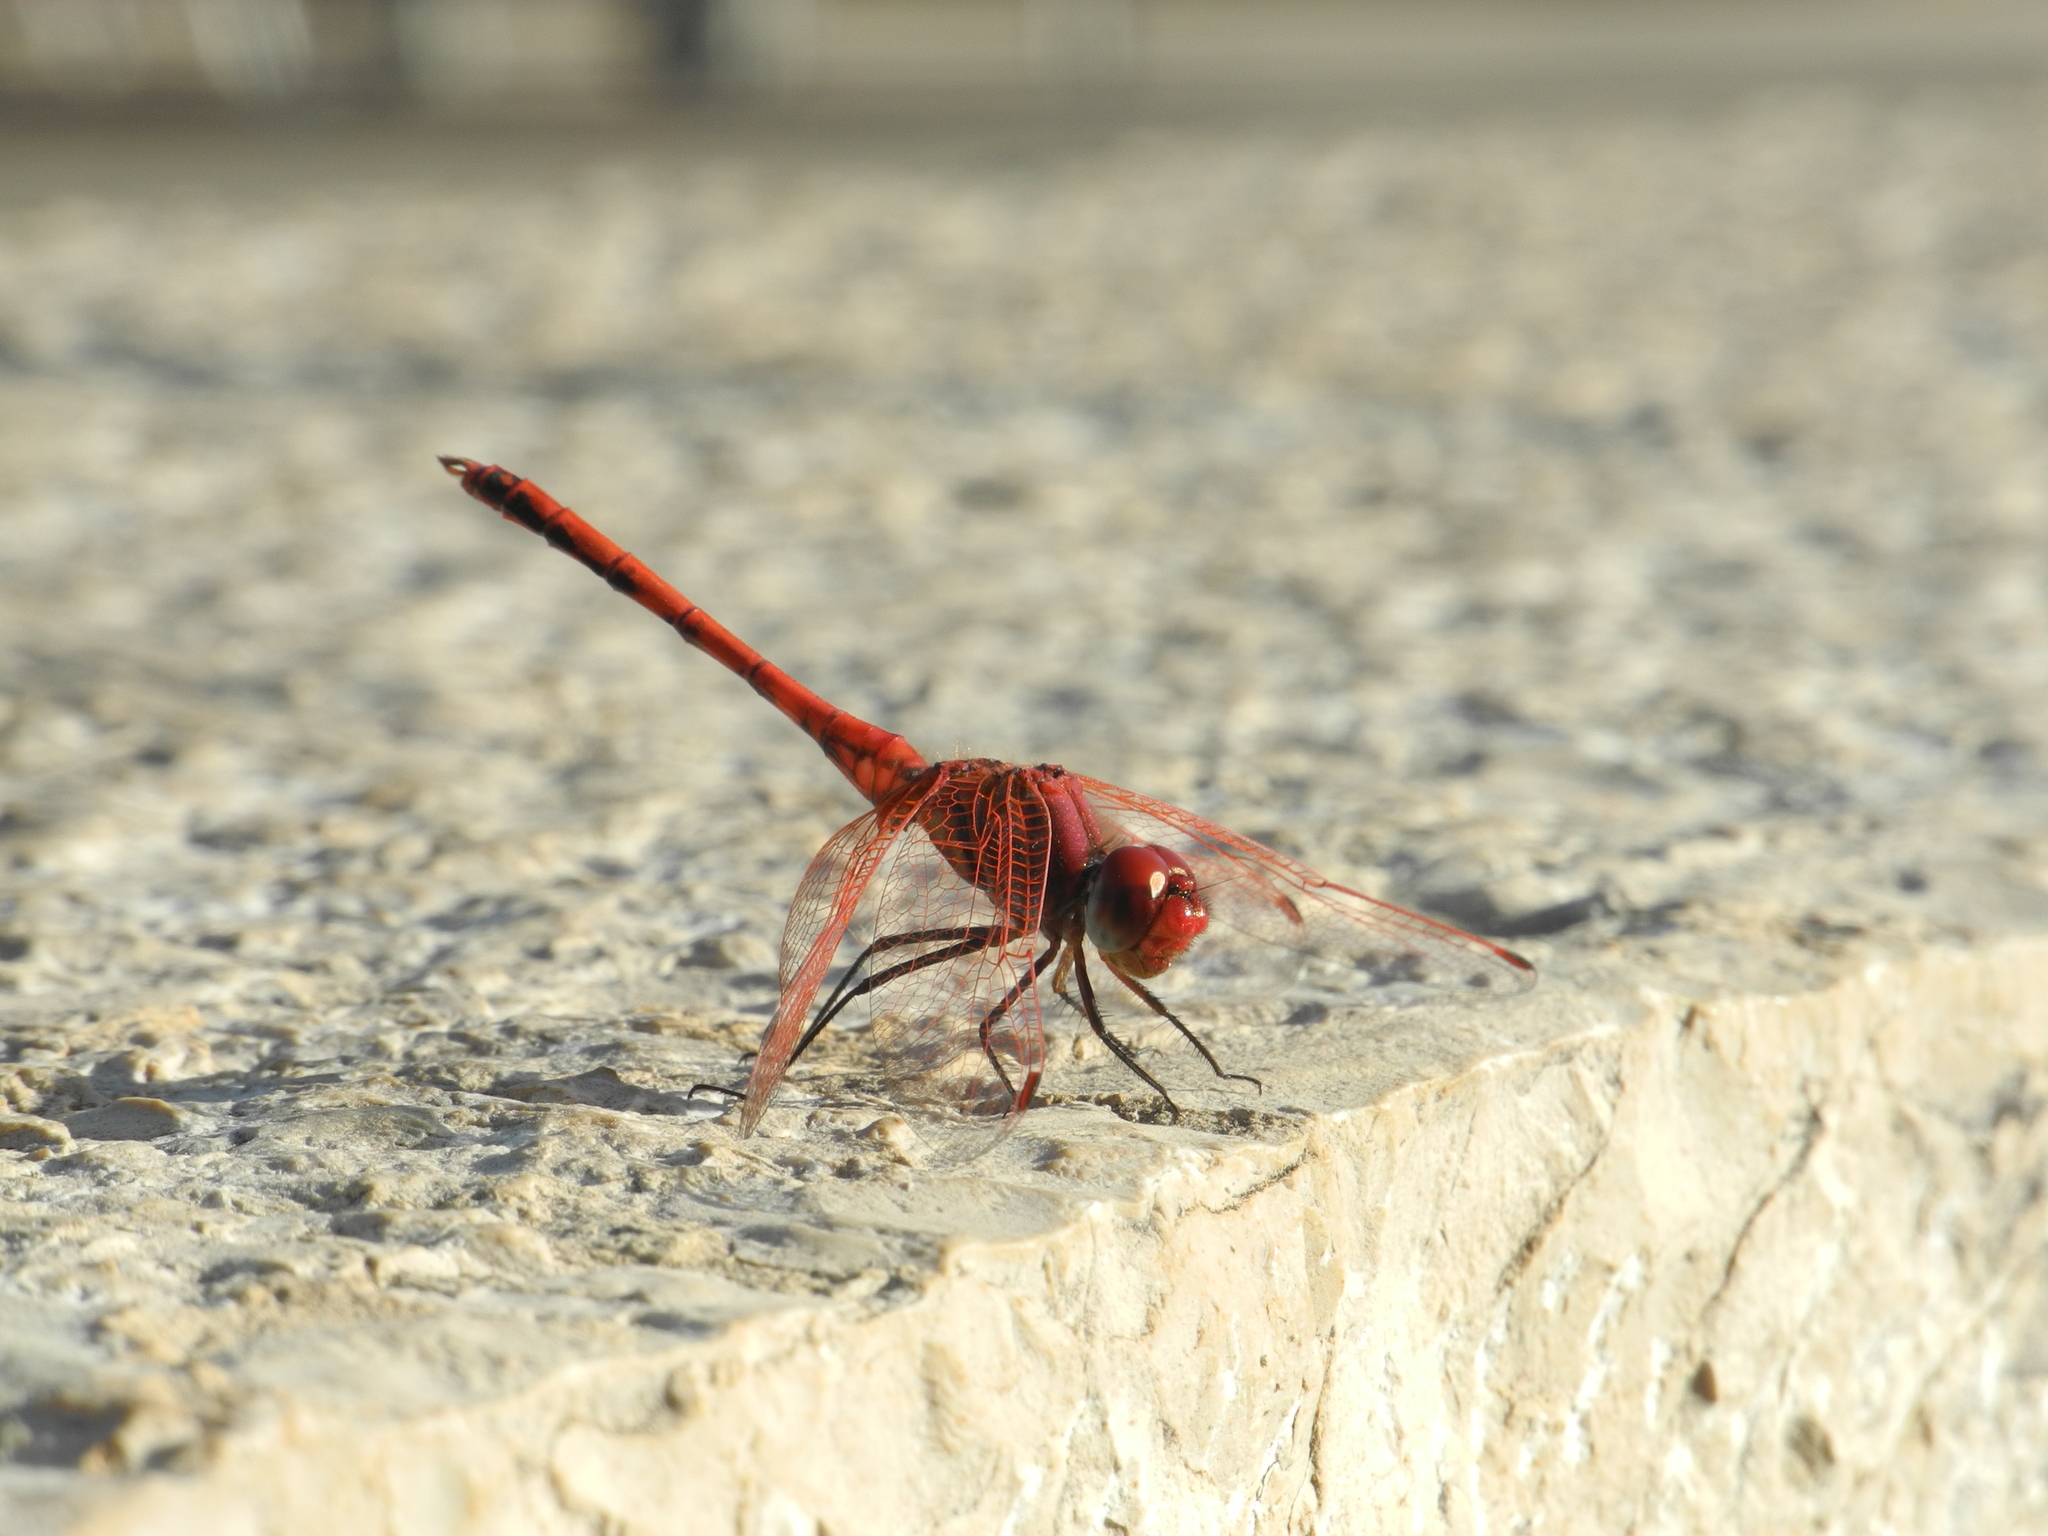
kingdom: Animalia
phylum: Arthropoda
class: Insecta
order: Odonata
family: Libellulidae
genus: Trithemis
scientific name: Trithemis arteriosa
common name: Red-veined dropwing
